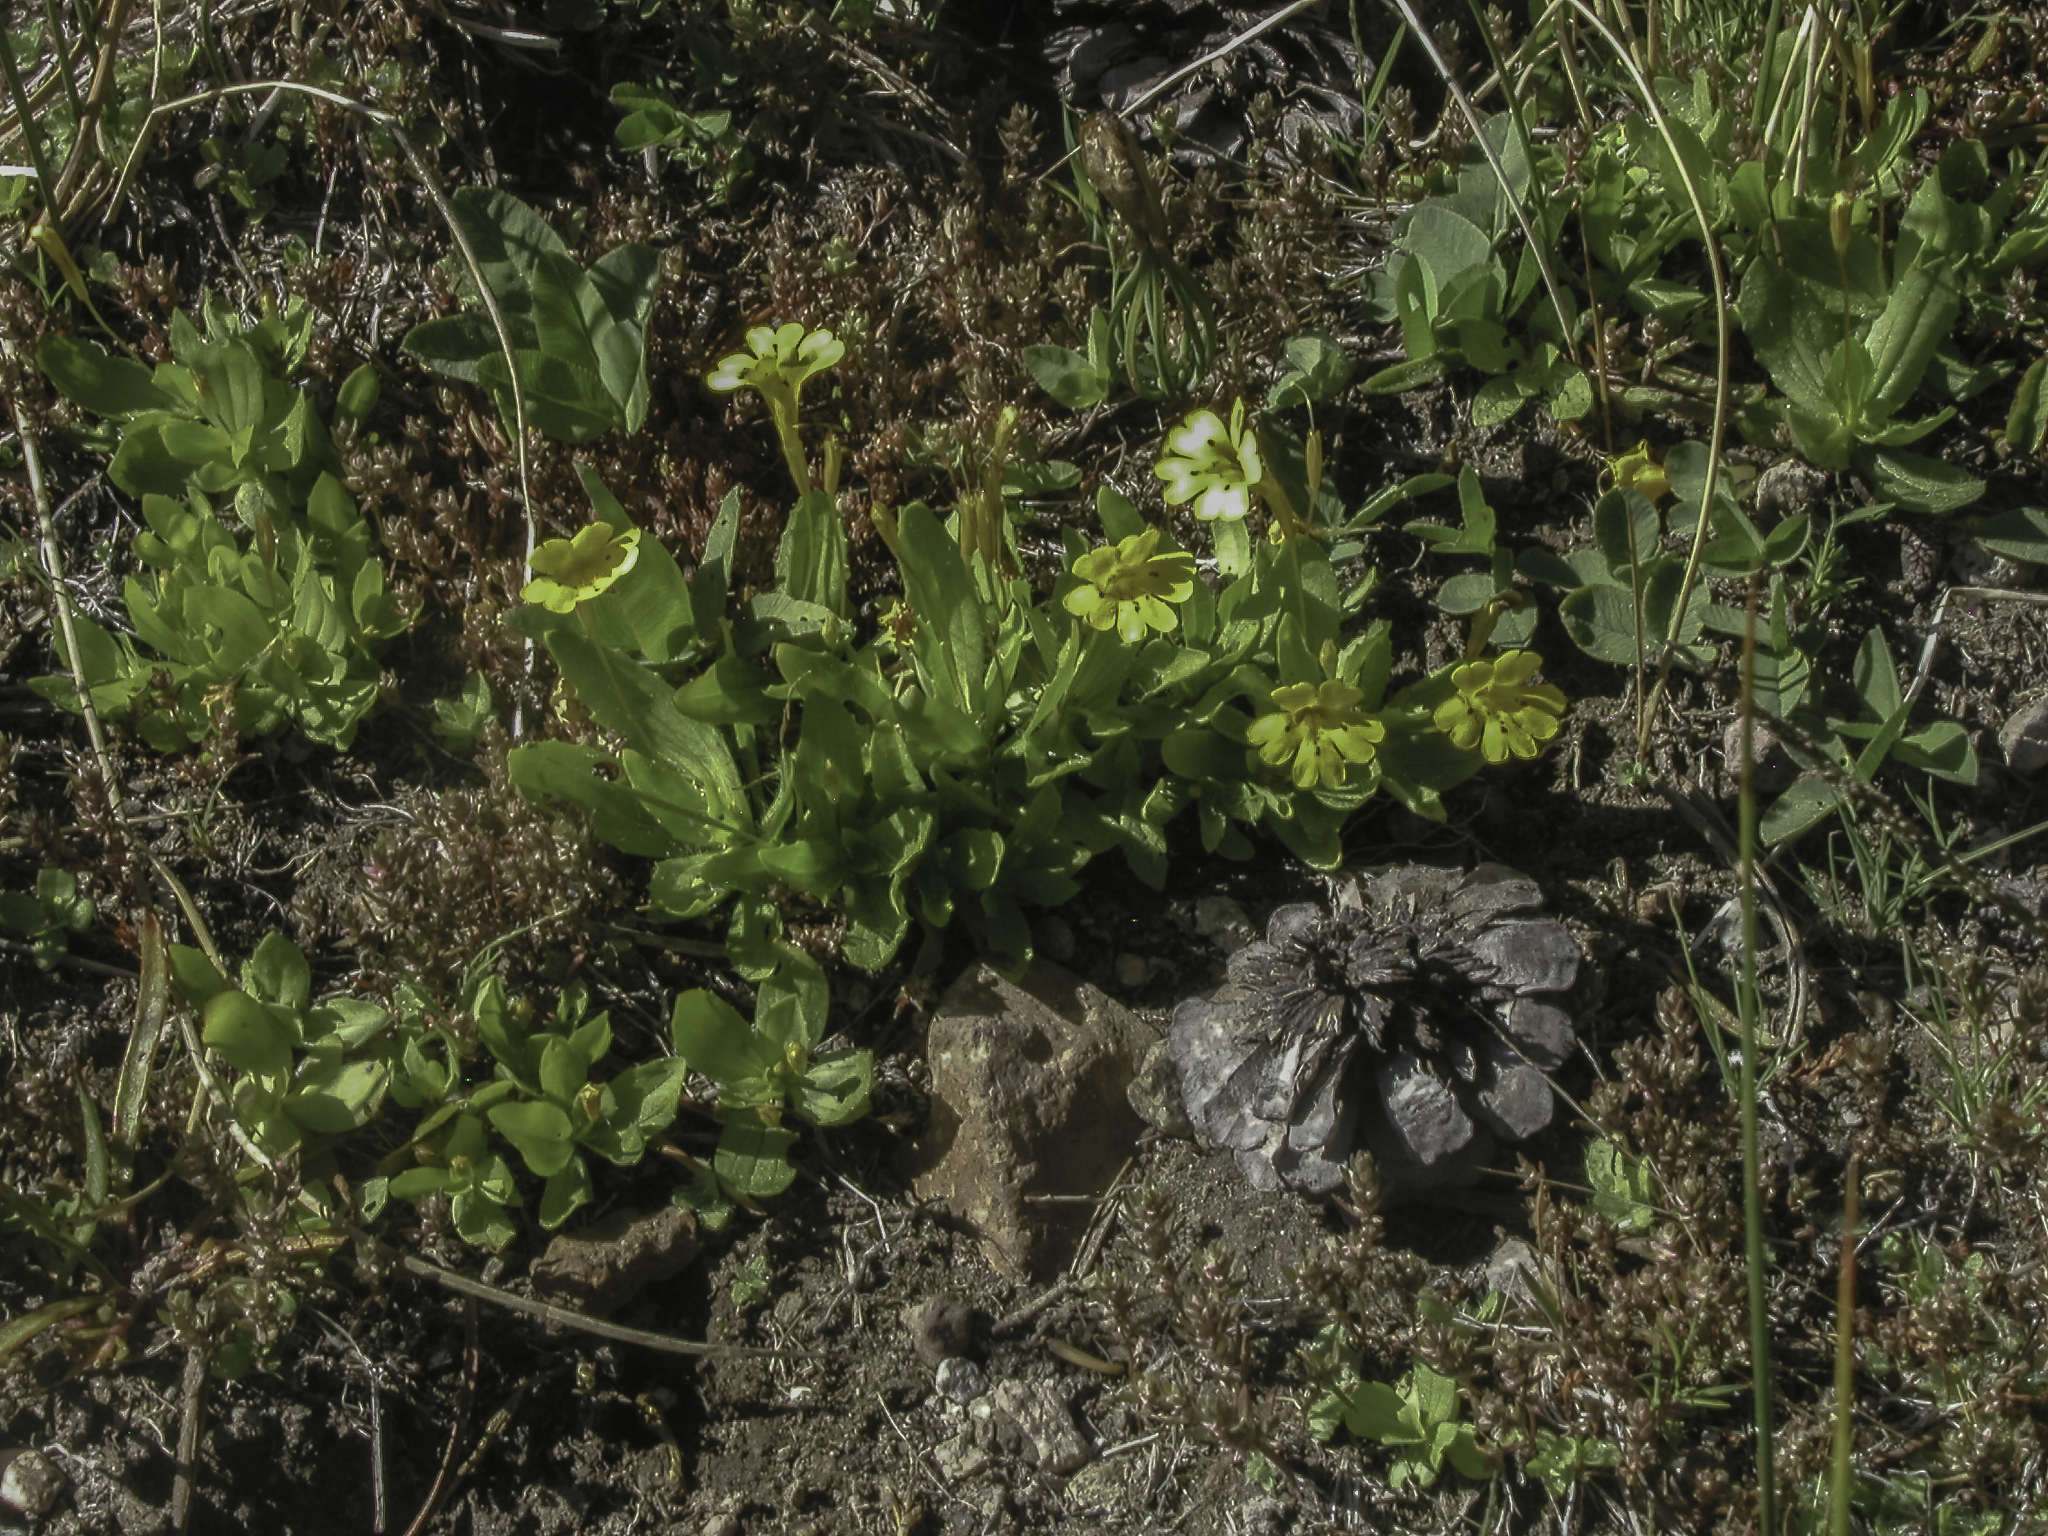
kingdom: Plantae
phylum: Tracheophyta
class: Magnoliopsida
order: Lamiales
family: Phrymaceae
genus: Erythranthe
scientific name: Erythranthe primuloides
